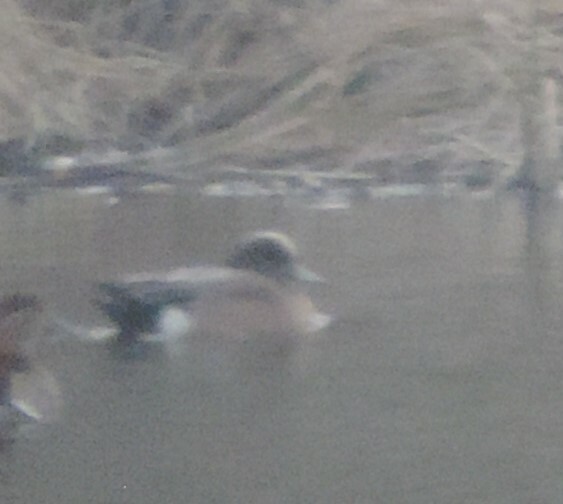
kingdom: Animalia
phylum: Chordata
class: Aves
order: Anseriformes
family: Anatidae
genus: Mareca
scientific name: Mareca americana
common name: American wigeon
